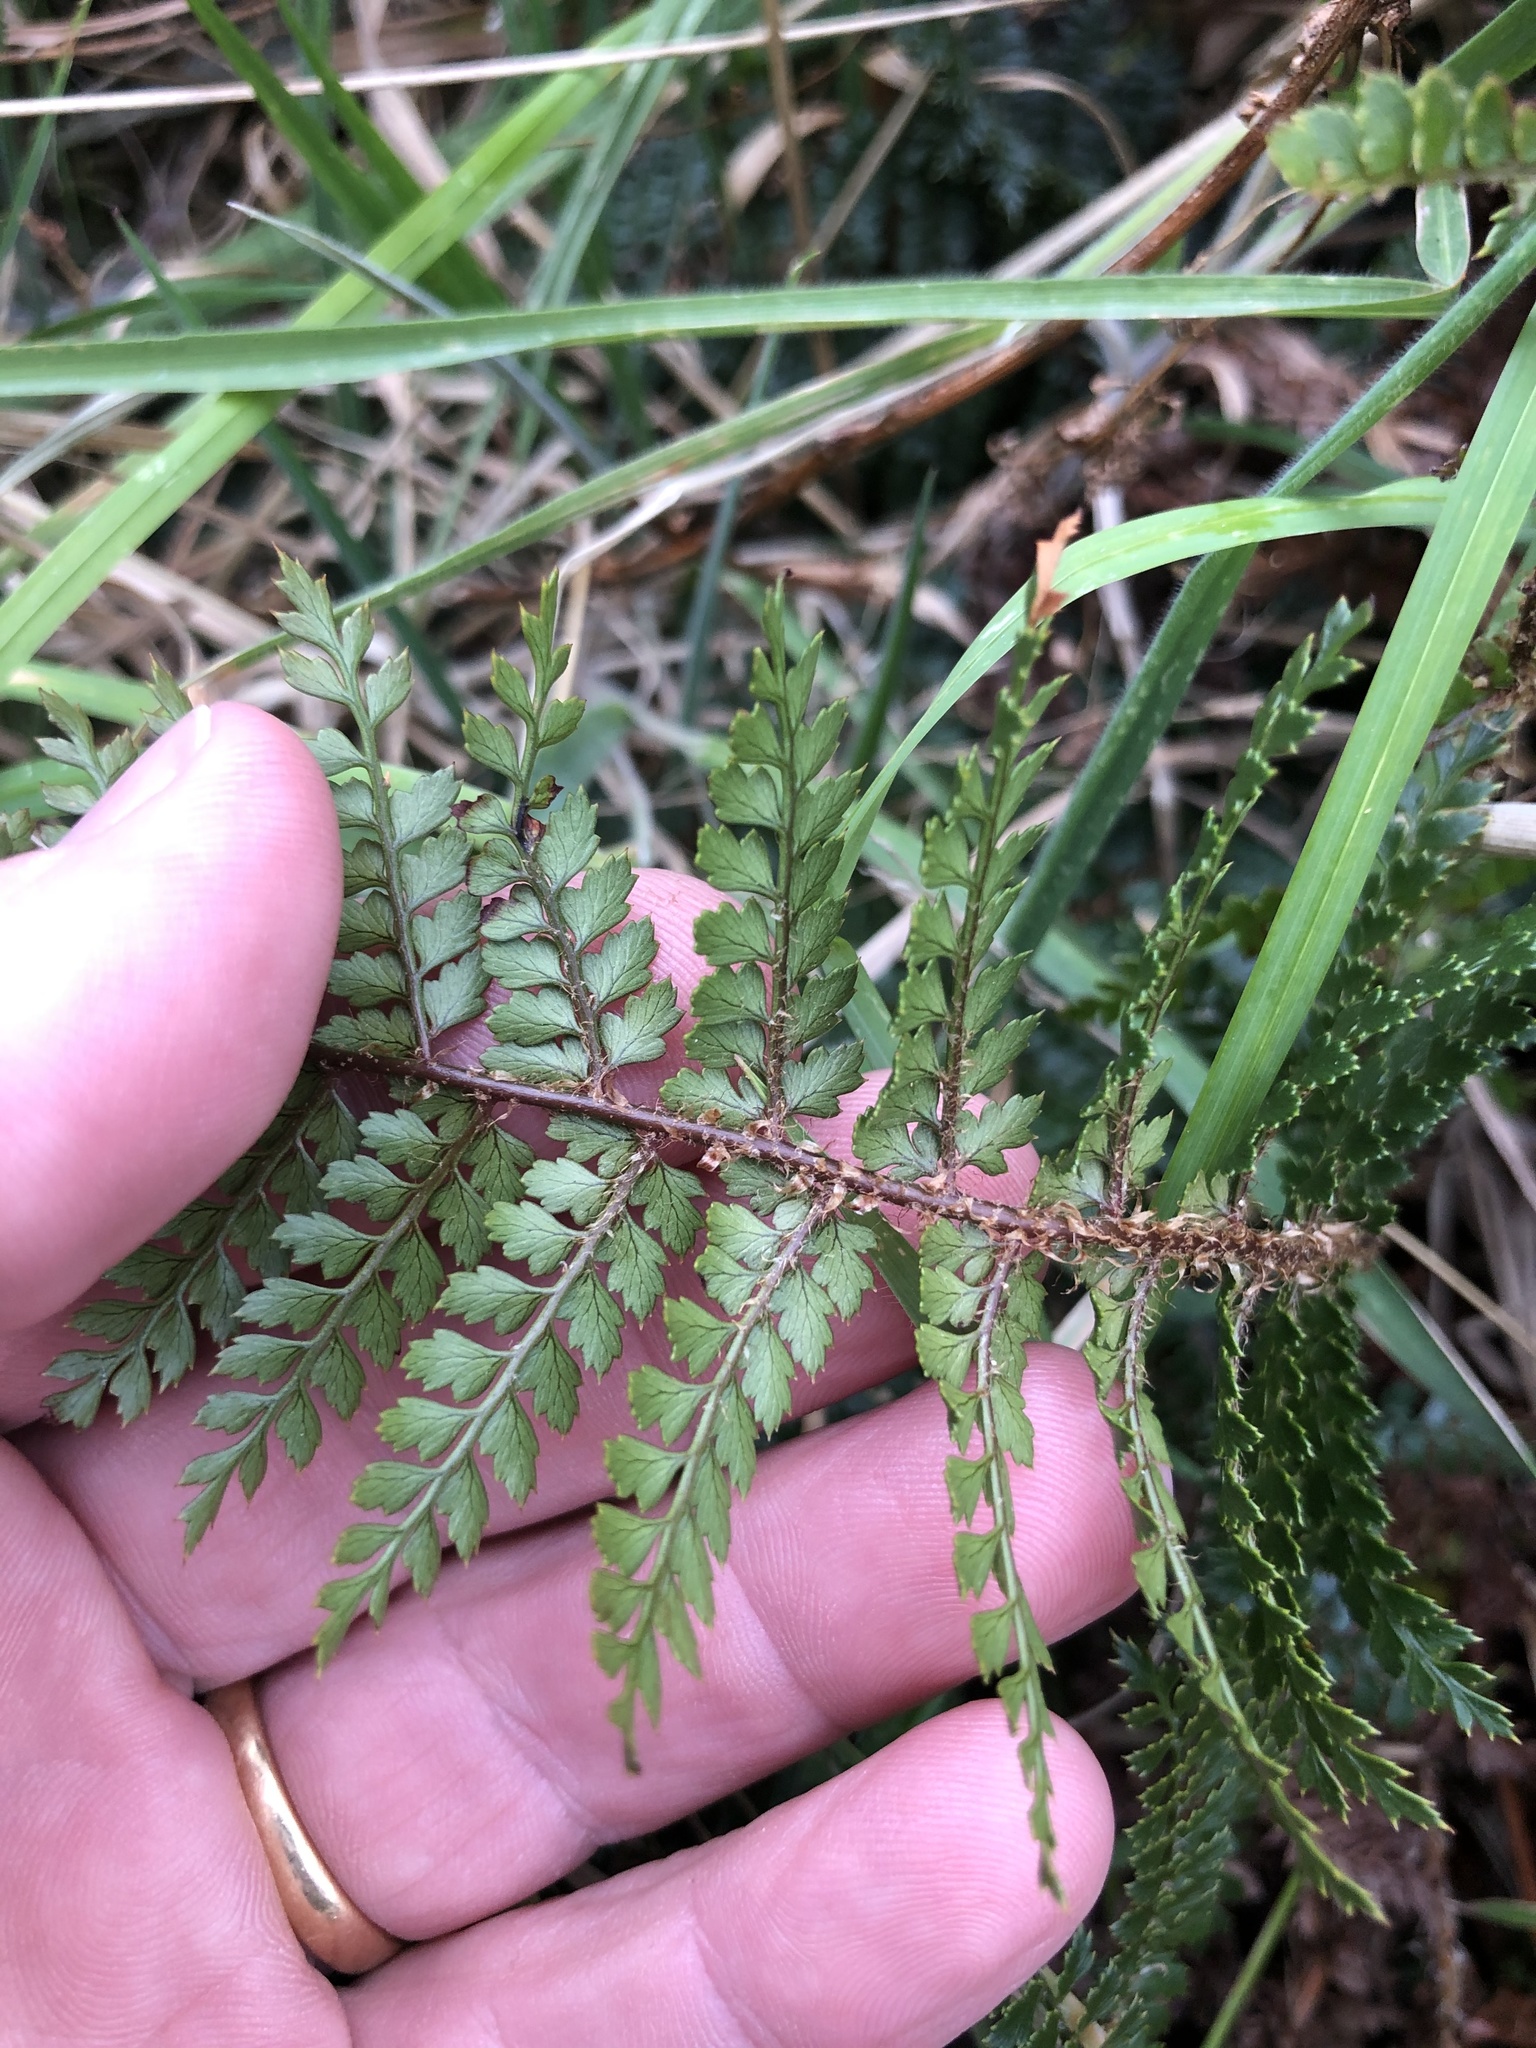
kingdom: Plantae
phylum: Tracheophyta
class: Polypodiopsida
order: Polypodiales
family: Dryopteridaceae
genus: Polystichum
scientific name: Polystichum vestitum
